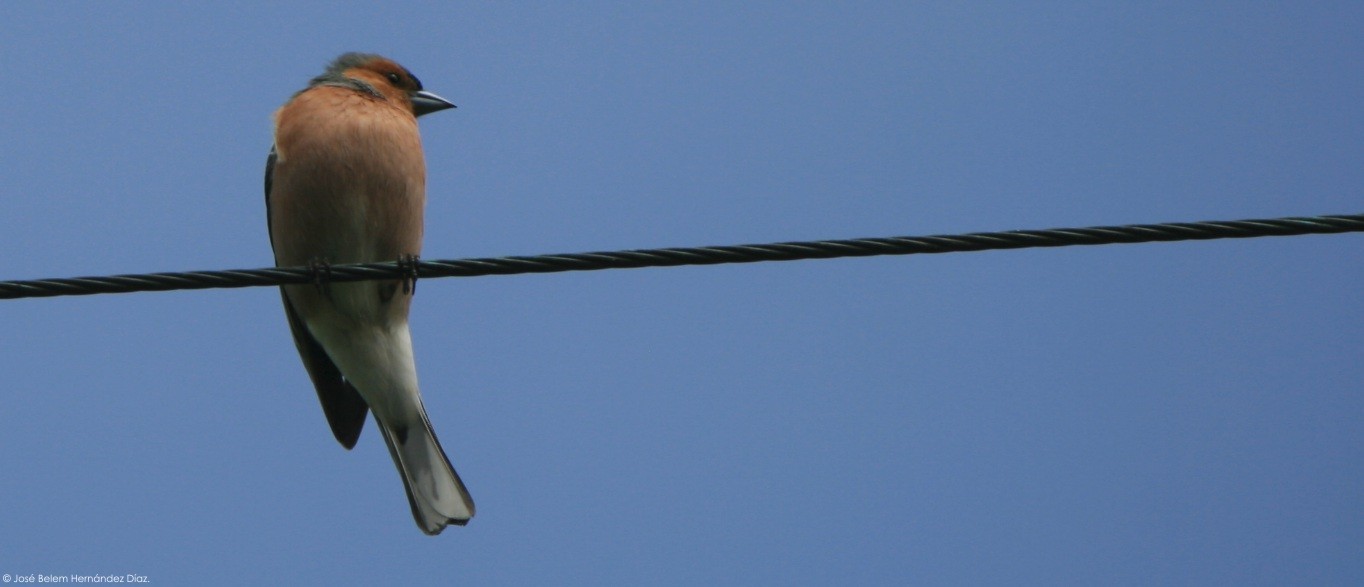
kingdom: Animalia
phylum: Chordata
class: Aves
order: Passeriformes
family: Fringillidae
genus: Fringilla
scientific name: Fringilla coelebs
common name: Common chaffinch
